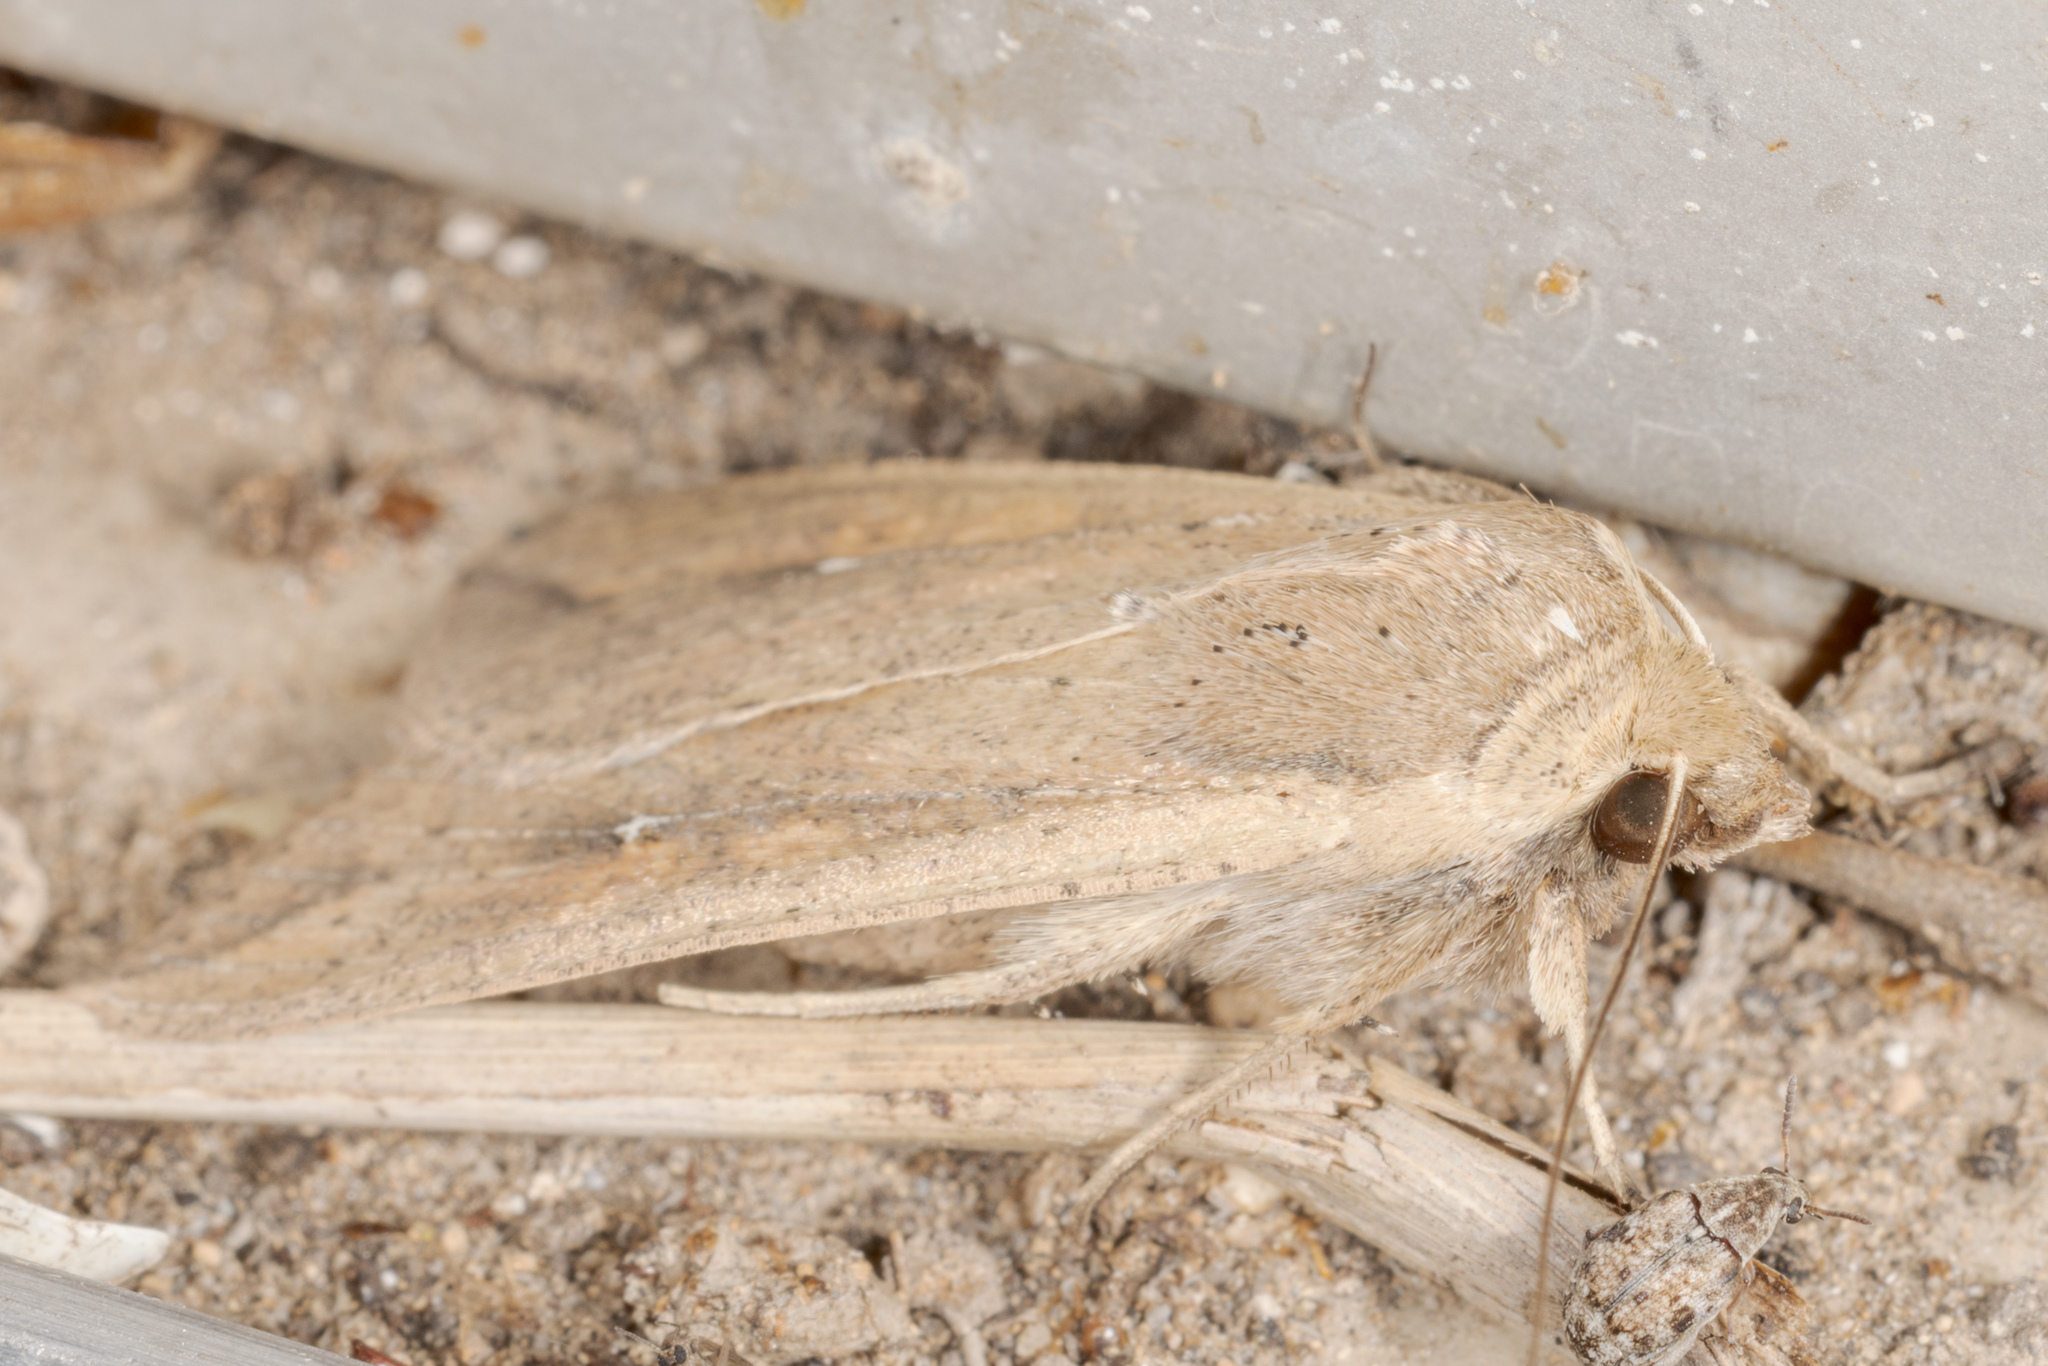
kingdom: Animalia
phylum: Arthropoda
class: Insecta
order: Lepidoptera
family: Noctuidae
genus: Mythimna
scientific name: Mythimna unipuncta
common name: White-speck
